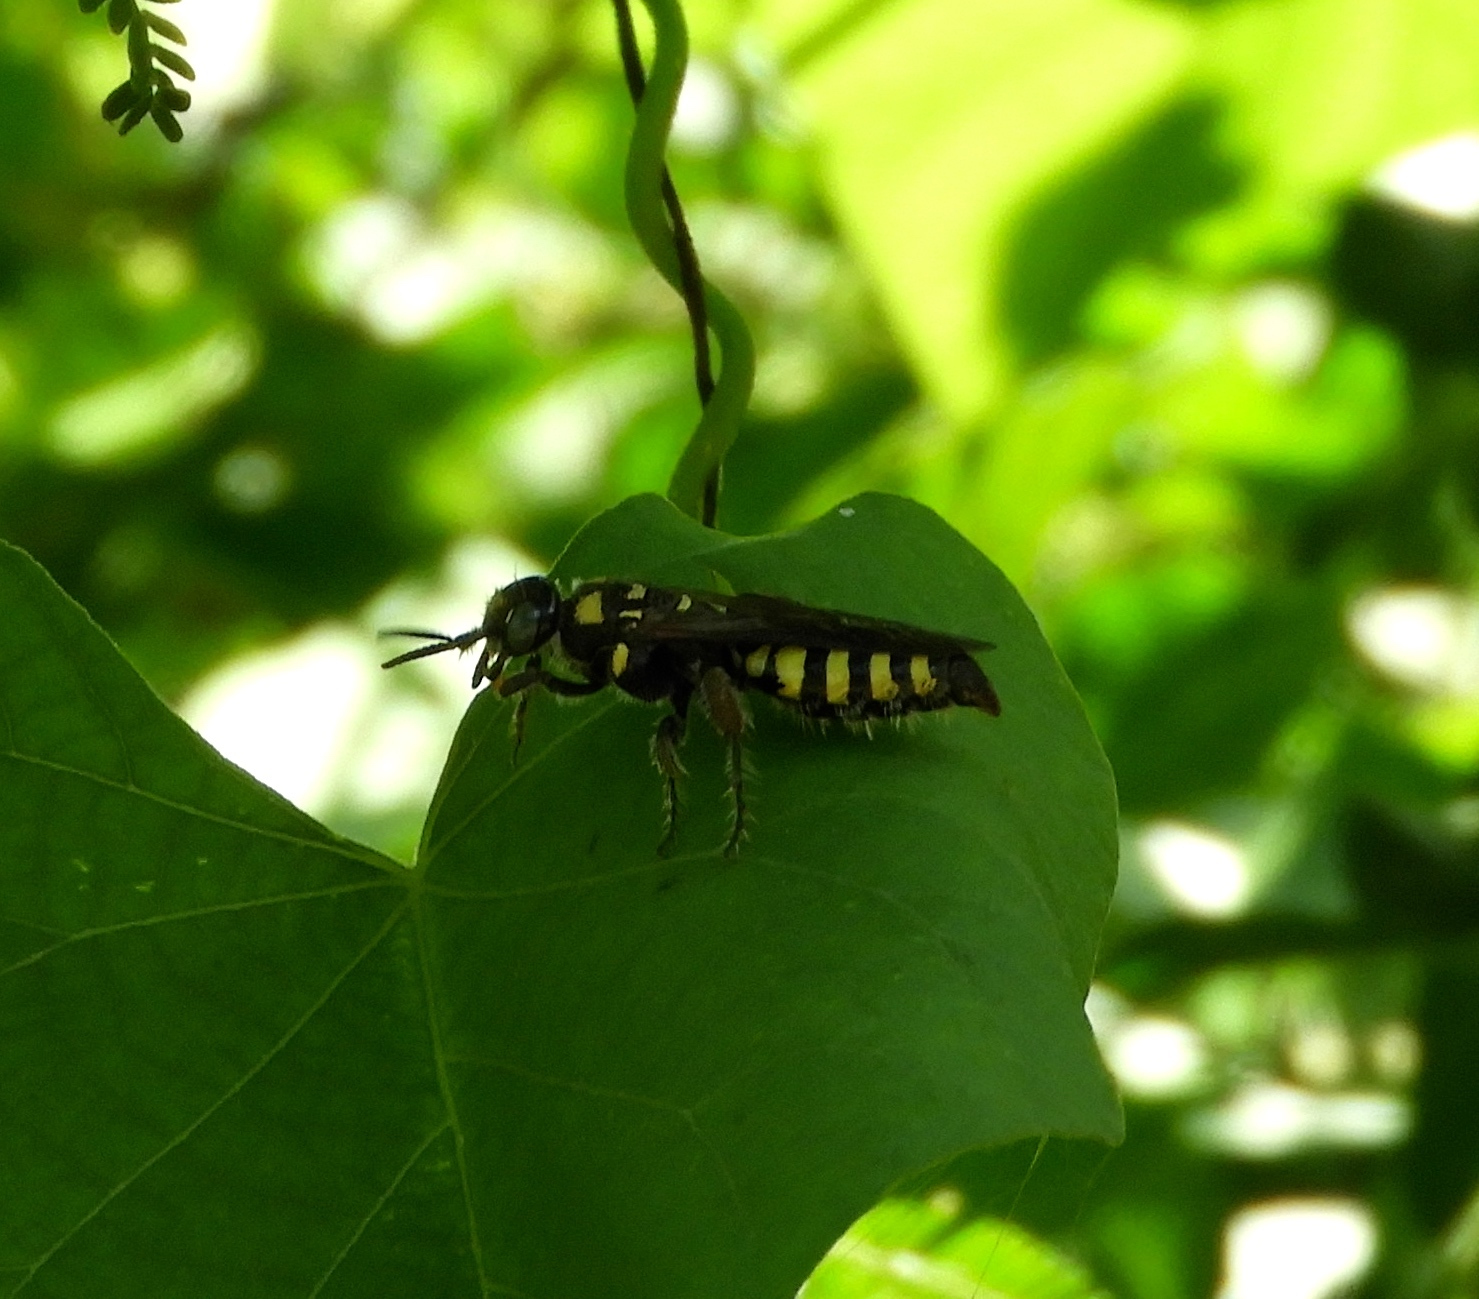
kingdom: Animalia
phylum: Arthropoda
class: Insecta
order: Hymenoptera
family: Tiphiidae
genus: Myzinum
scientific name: Myzinum
